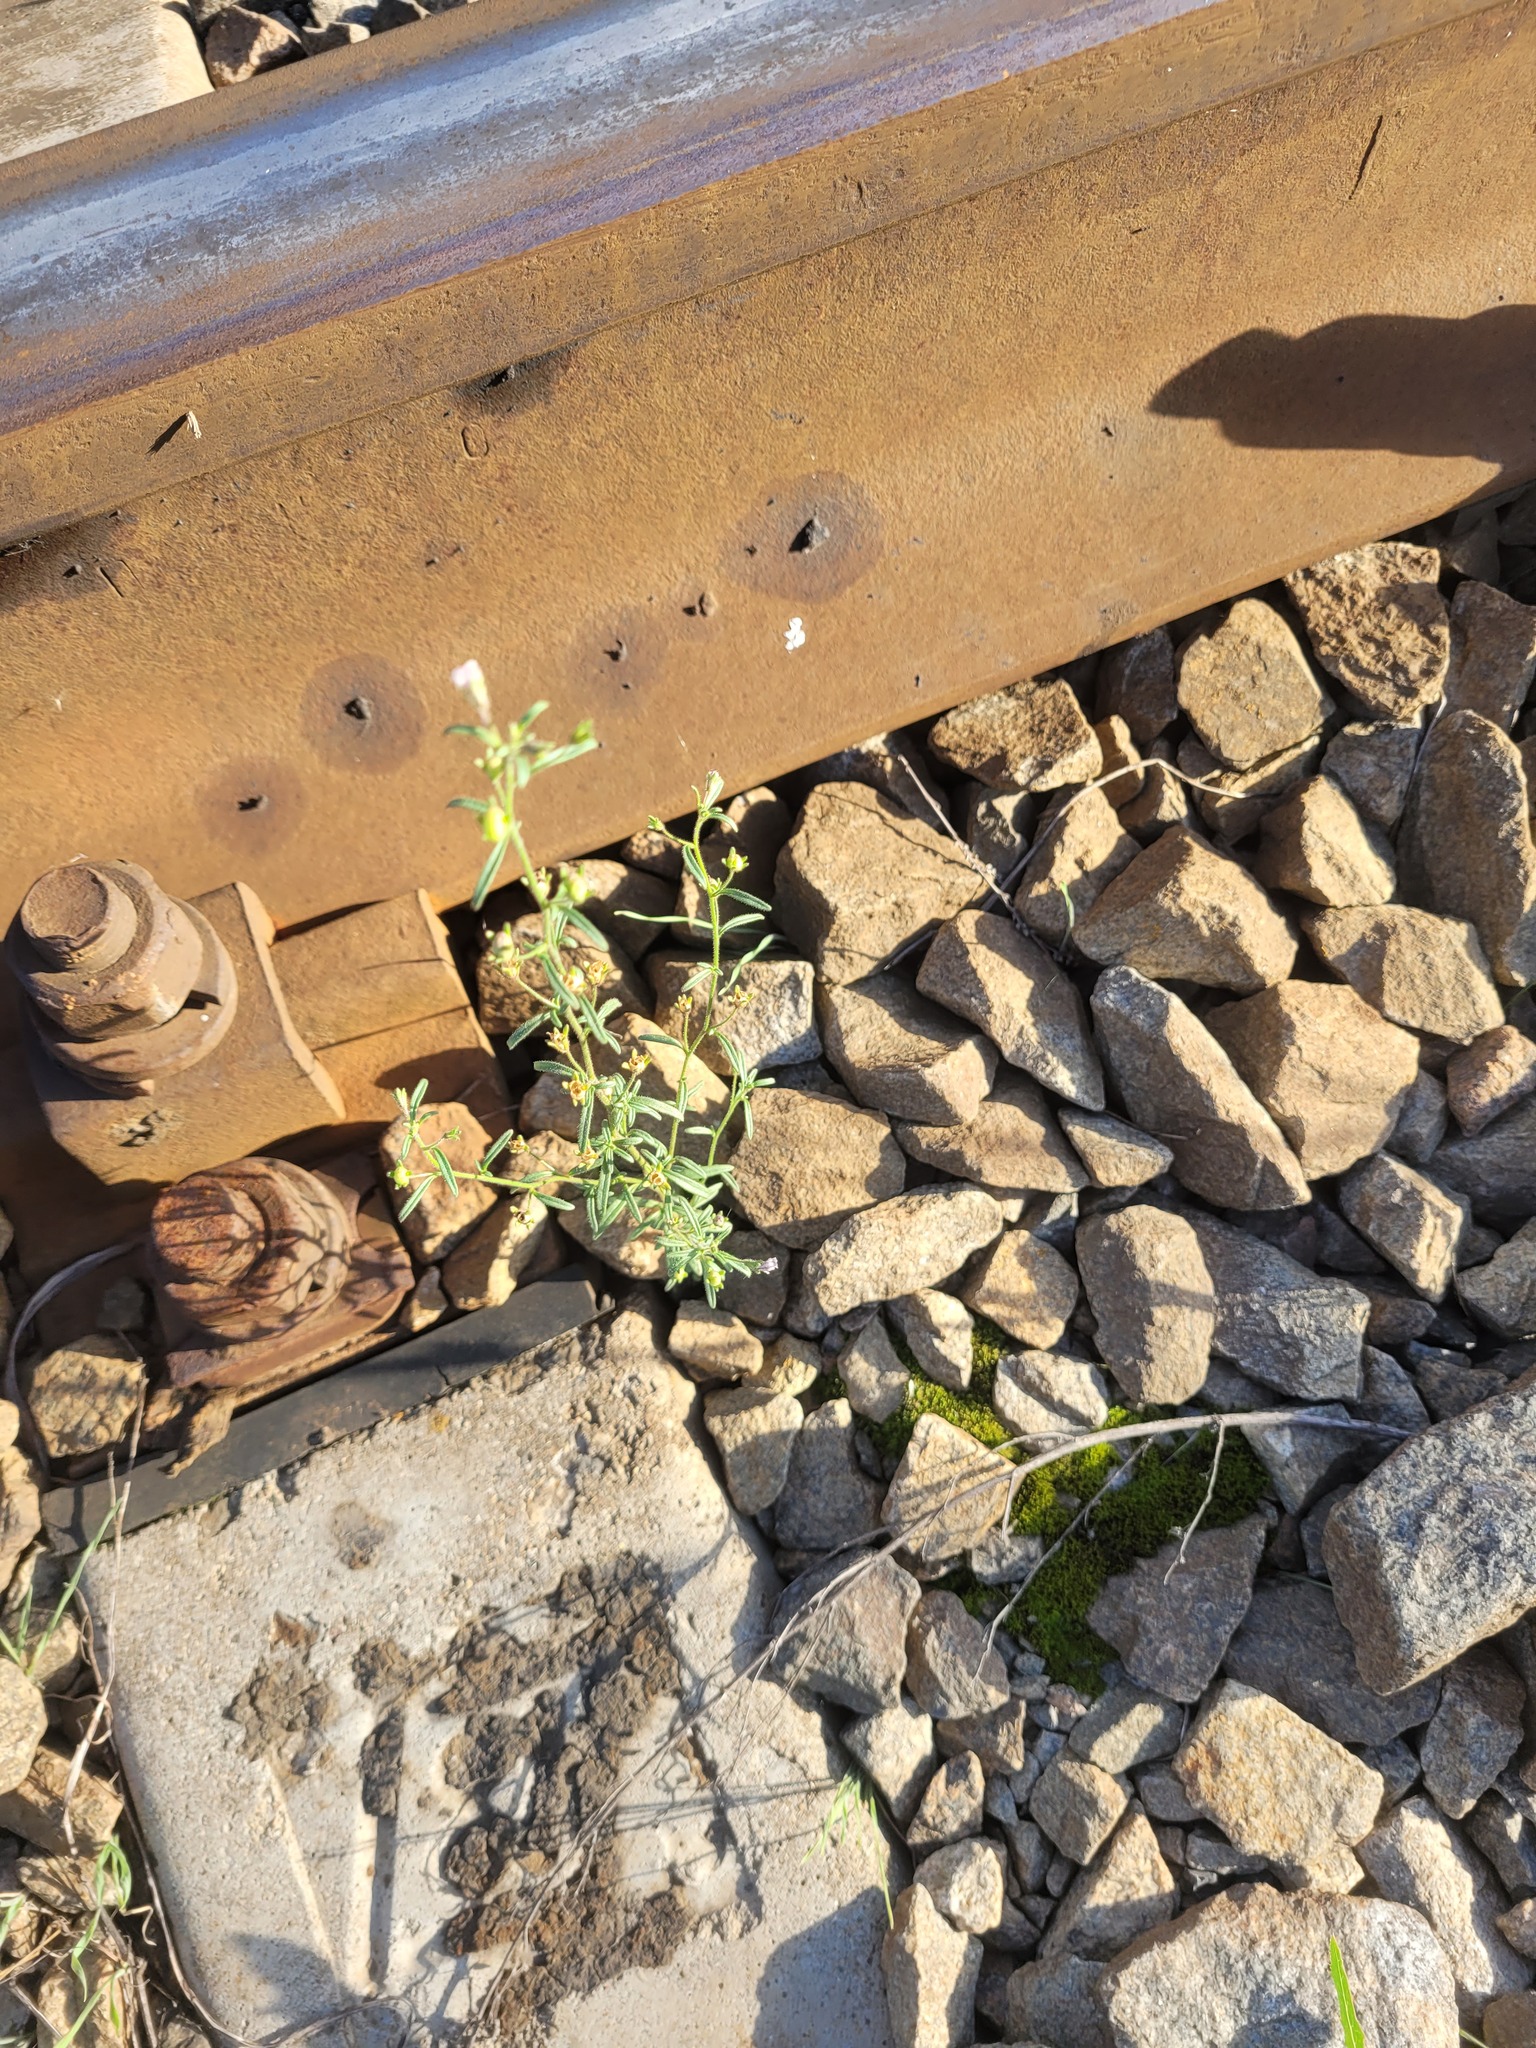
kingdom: Plantae
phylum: Tracheophyta
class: Magnoliopsida
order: Lamiales
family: Plantaginaceae
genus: Chaenorhinum
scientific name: Chaenorhinum minus
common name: Dwarf snapdragon
